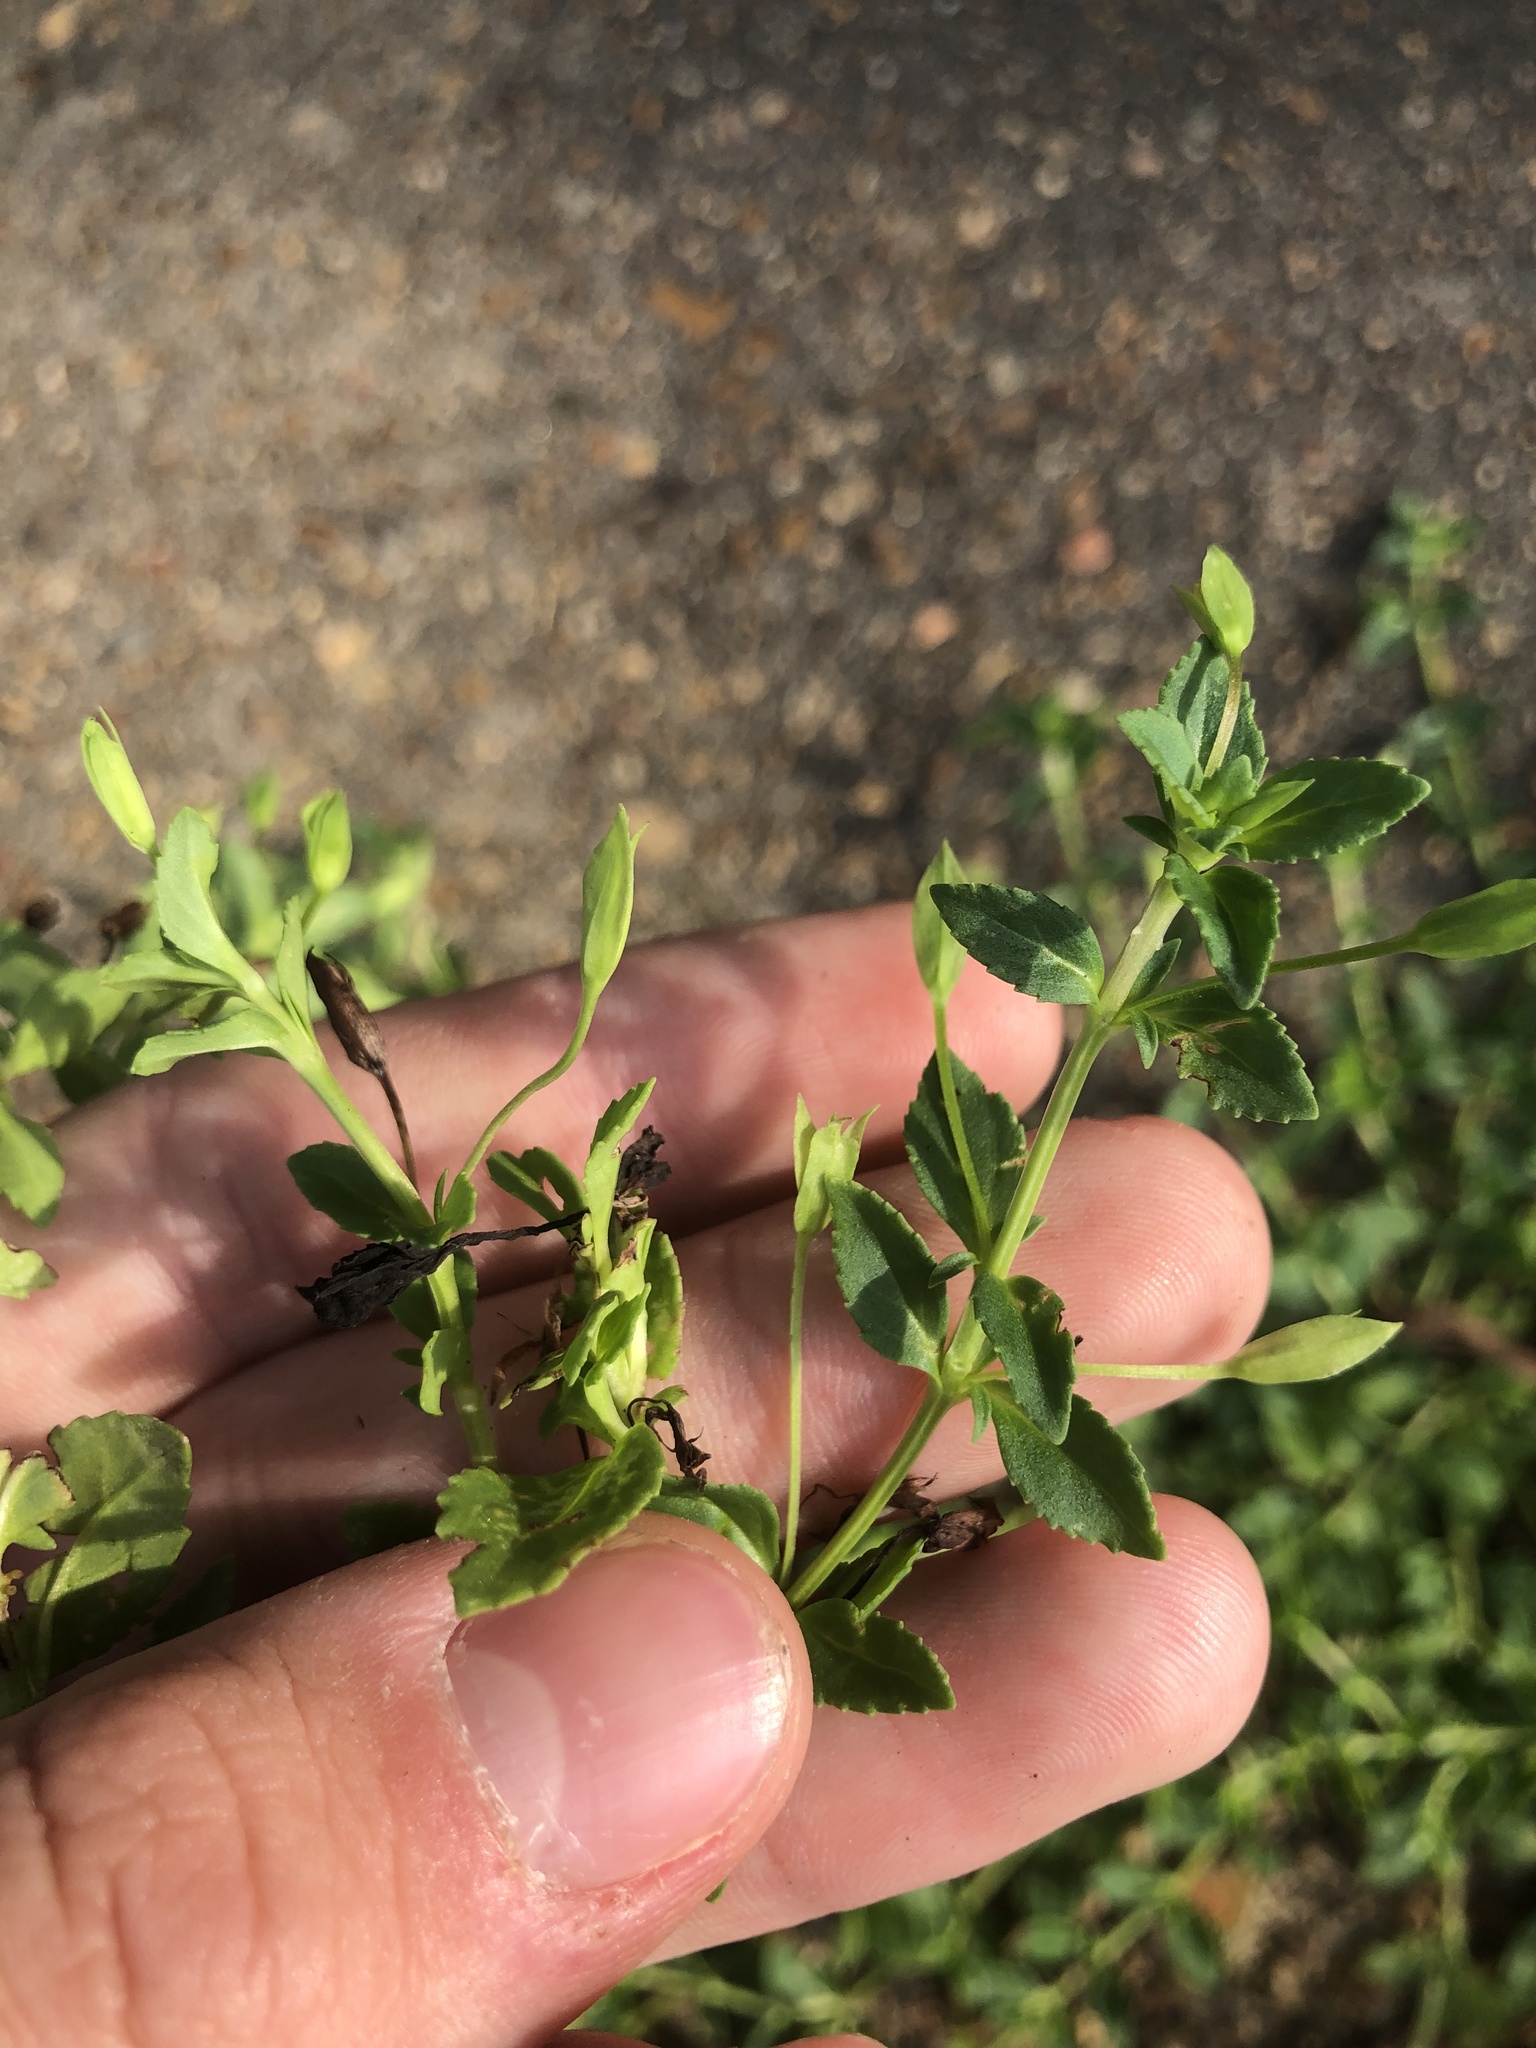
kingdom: Plantae
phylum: Tracheophyta
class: Magnoliopsida
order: Lamiales
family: Plantaginaceae
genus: Mecardonia
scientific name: Mecardonia procumbens
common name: Baby jump-up
